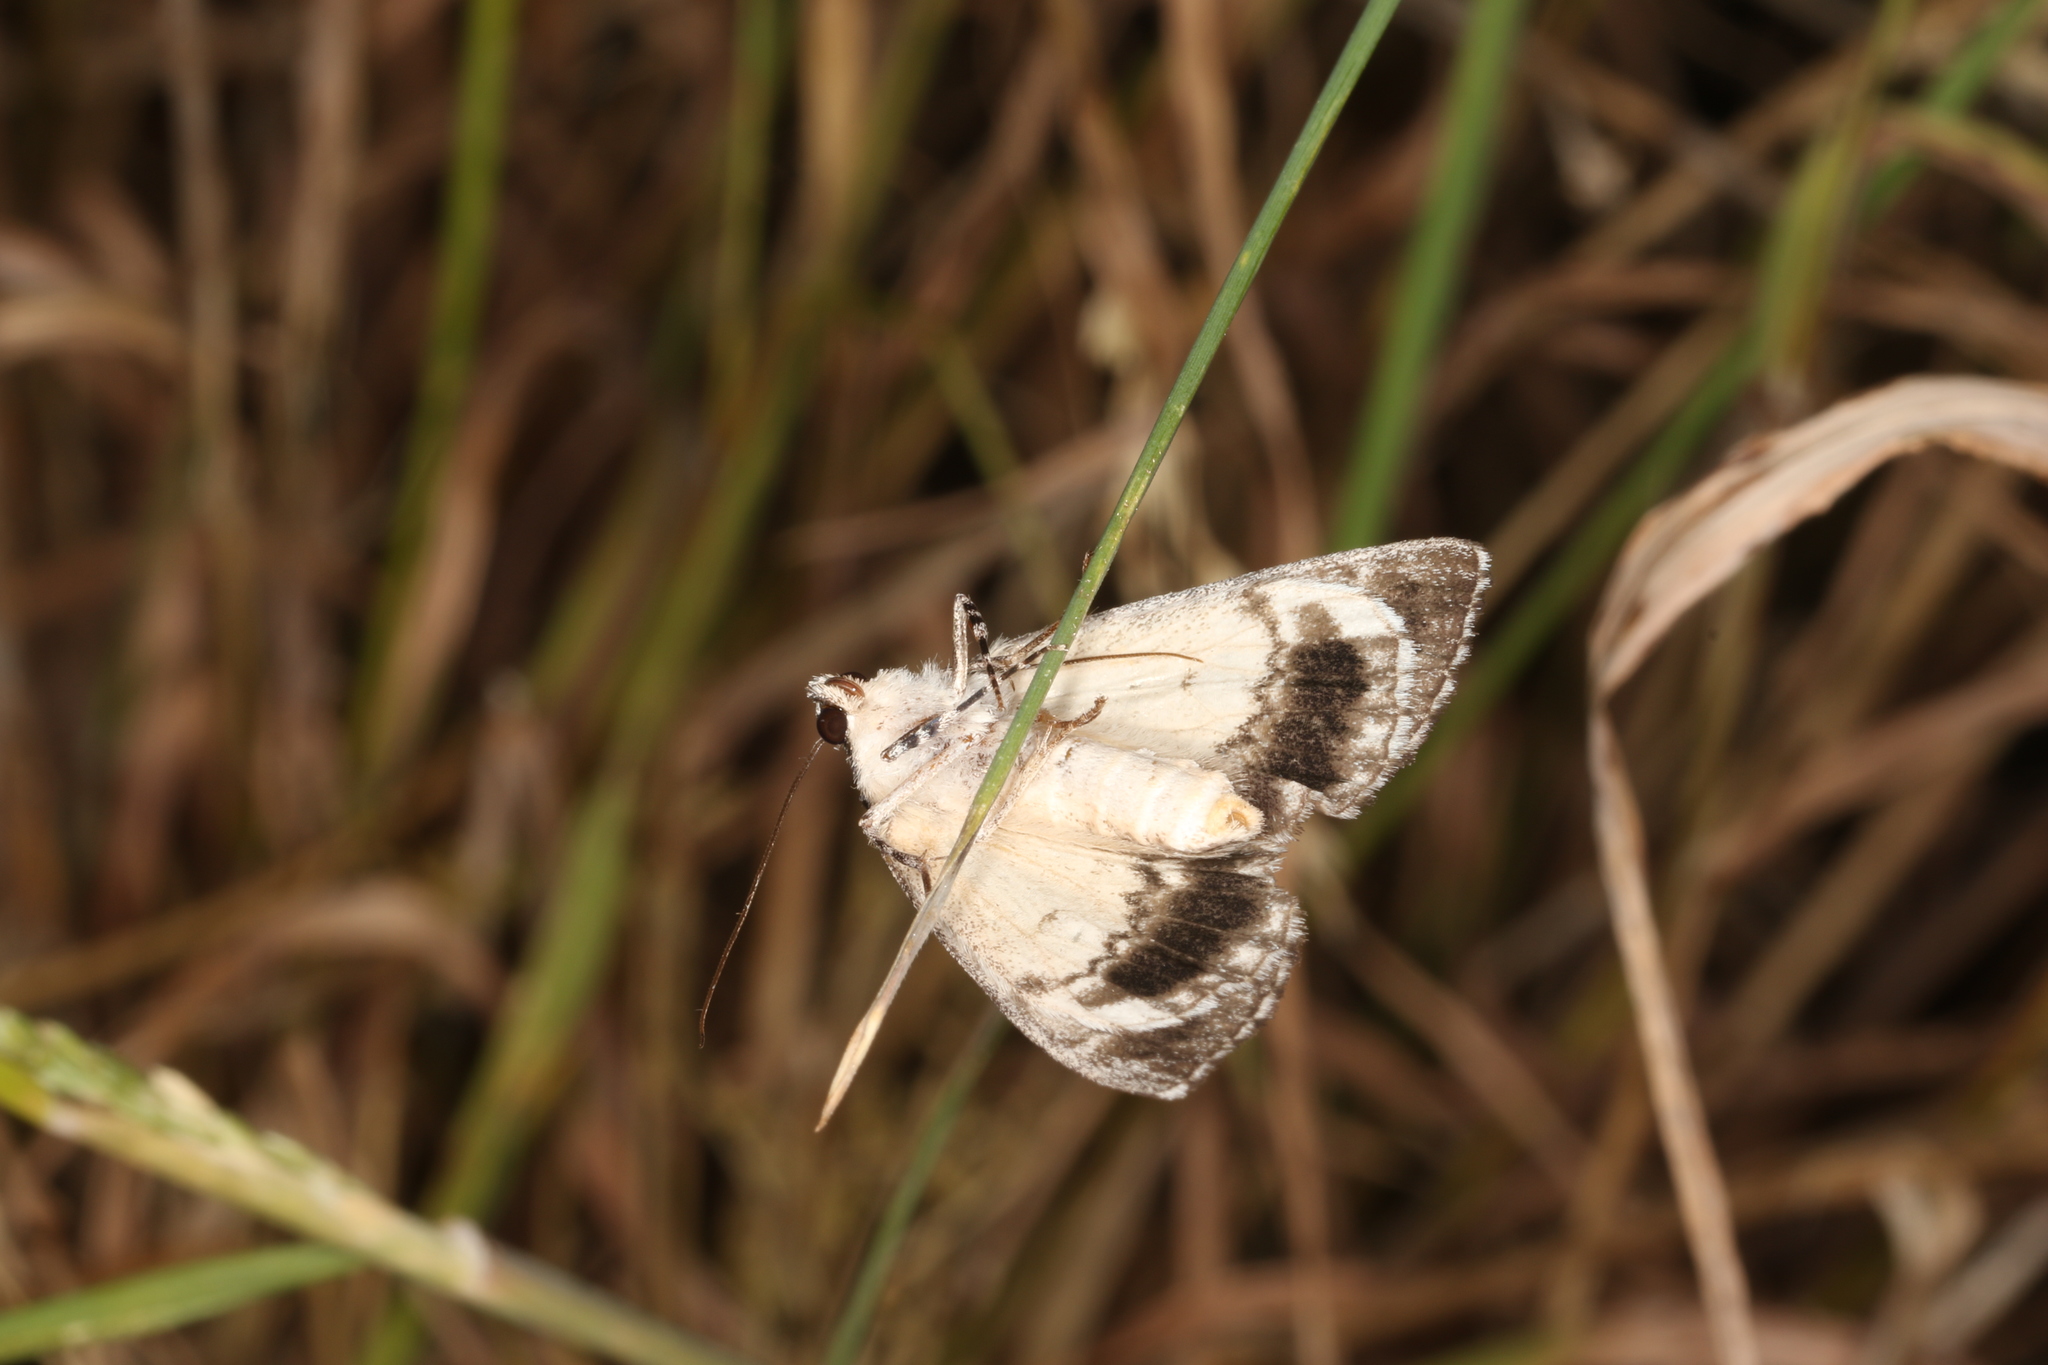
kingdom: Animalia
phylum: Arthropoda
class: Insecta
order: Lepidoptera
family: Geometridae
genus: Rhuma
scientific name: Rhuma argyraspis
